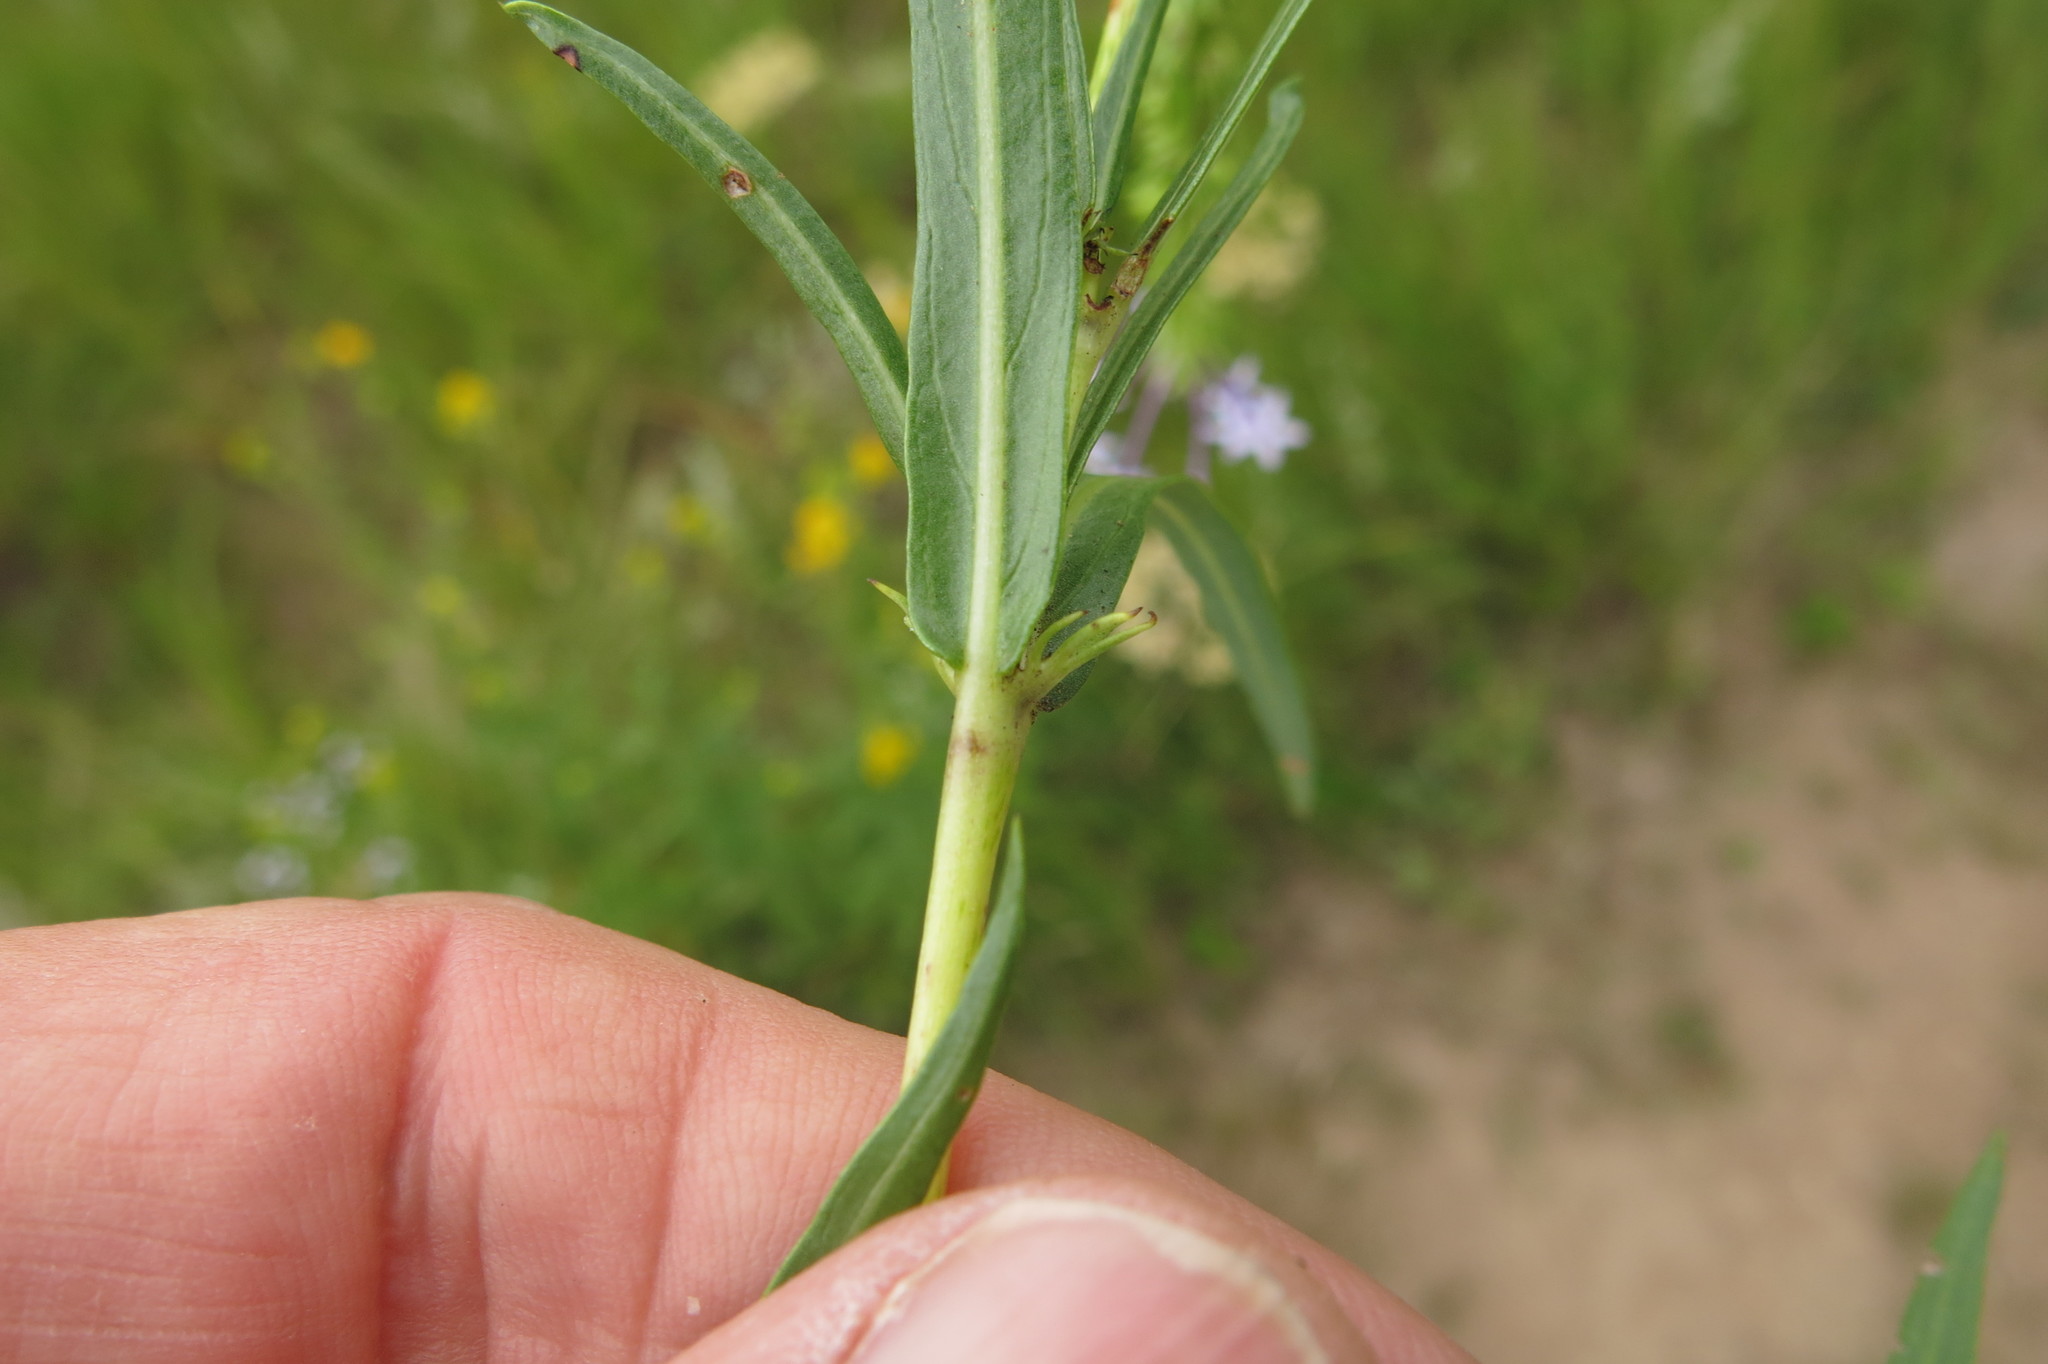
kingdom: Plantae
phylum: Tracheophyta
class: Magnoliopsida
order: Gentianales
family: Rubiaceae
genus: Pentanisia
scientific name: Pentanisia angustifolia
